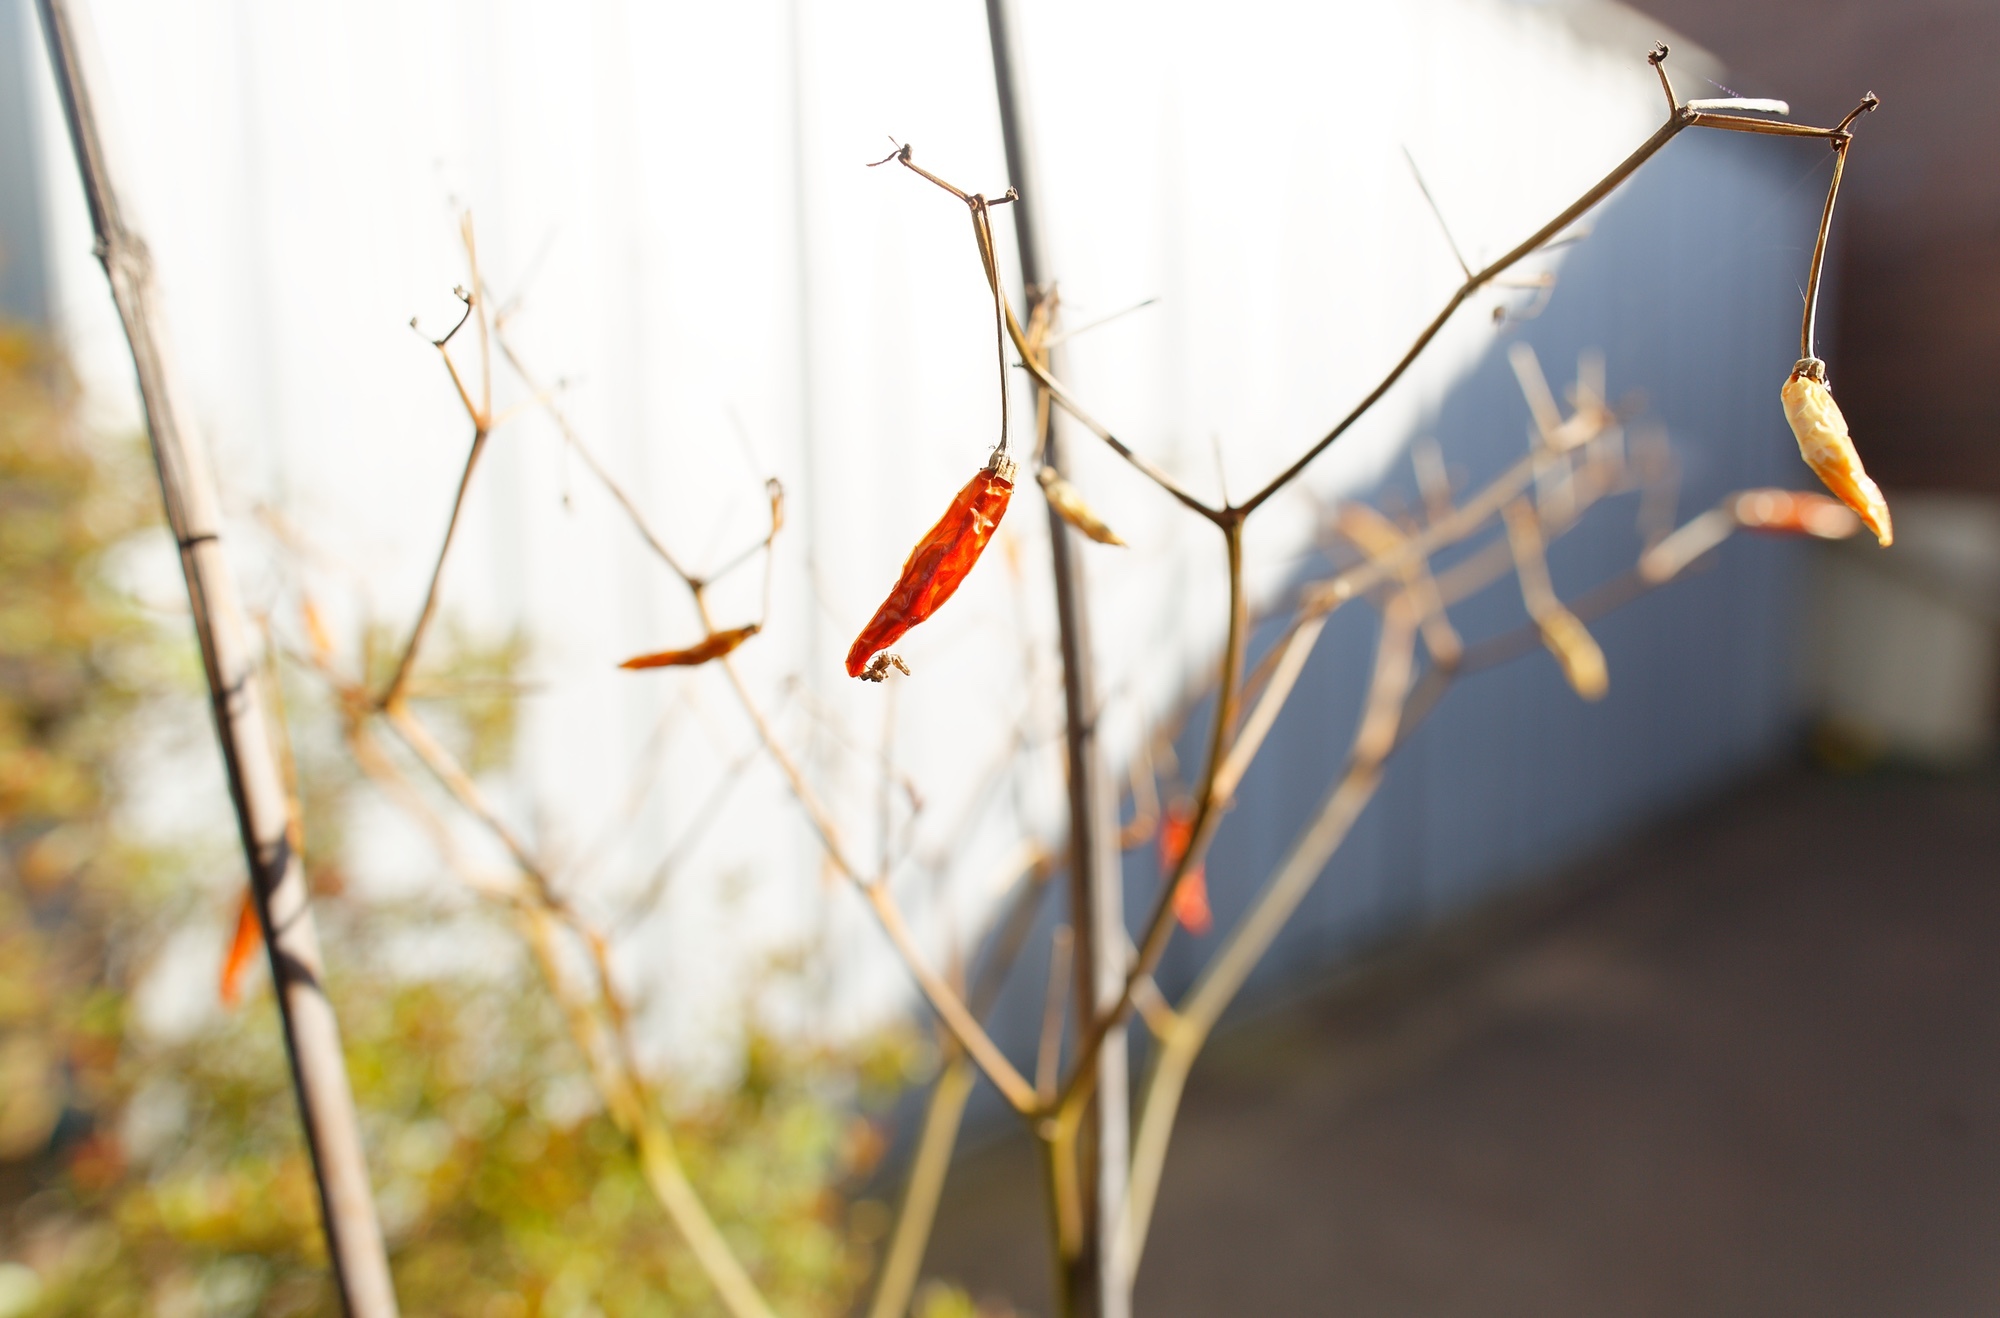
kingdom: Animalia
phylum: Arthropoda
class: Arachnida
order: Araneae
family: Uloboridae
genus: Philoponella
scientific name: Philoponella congregabilis
